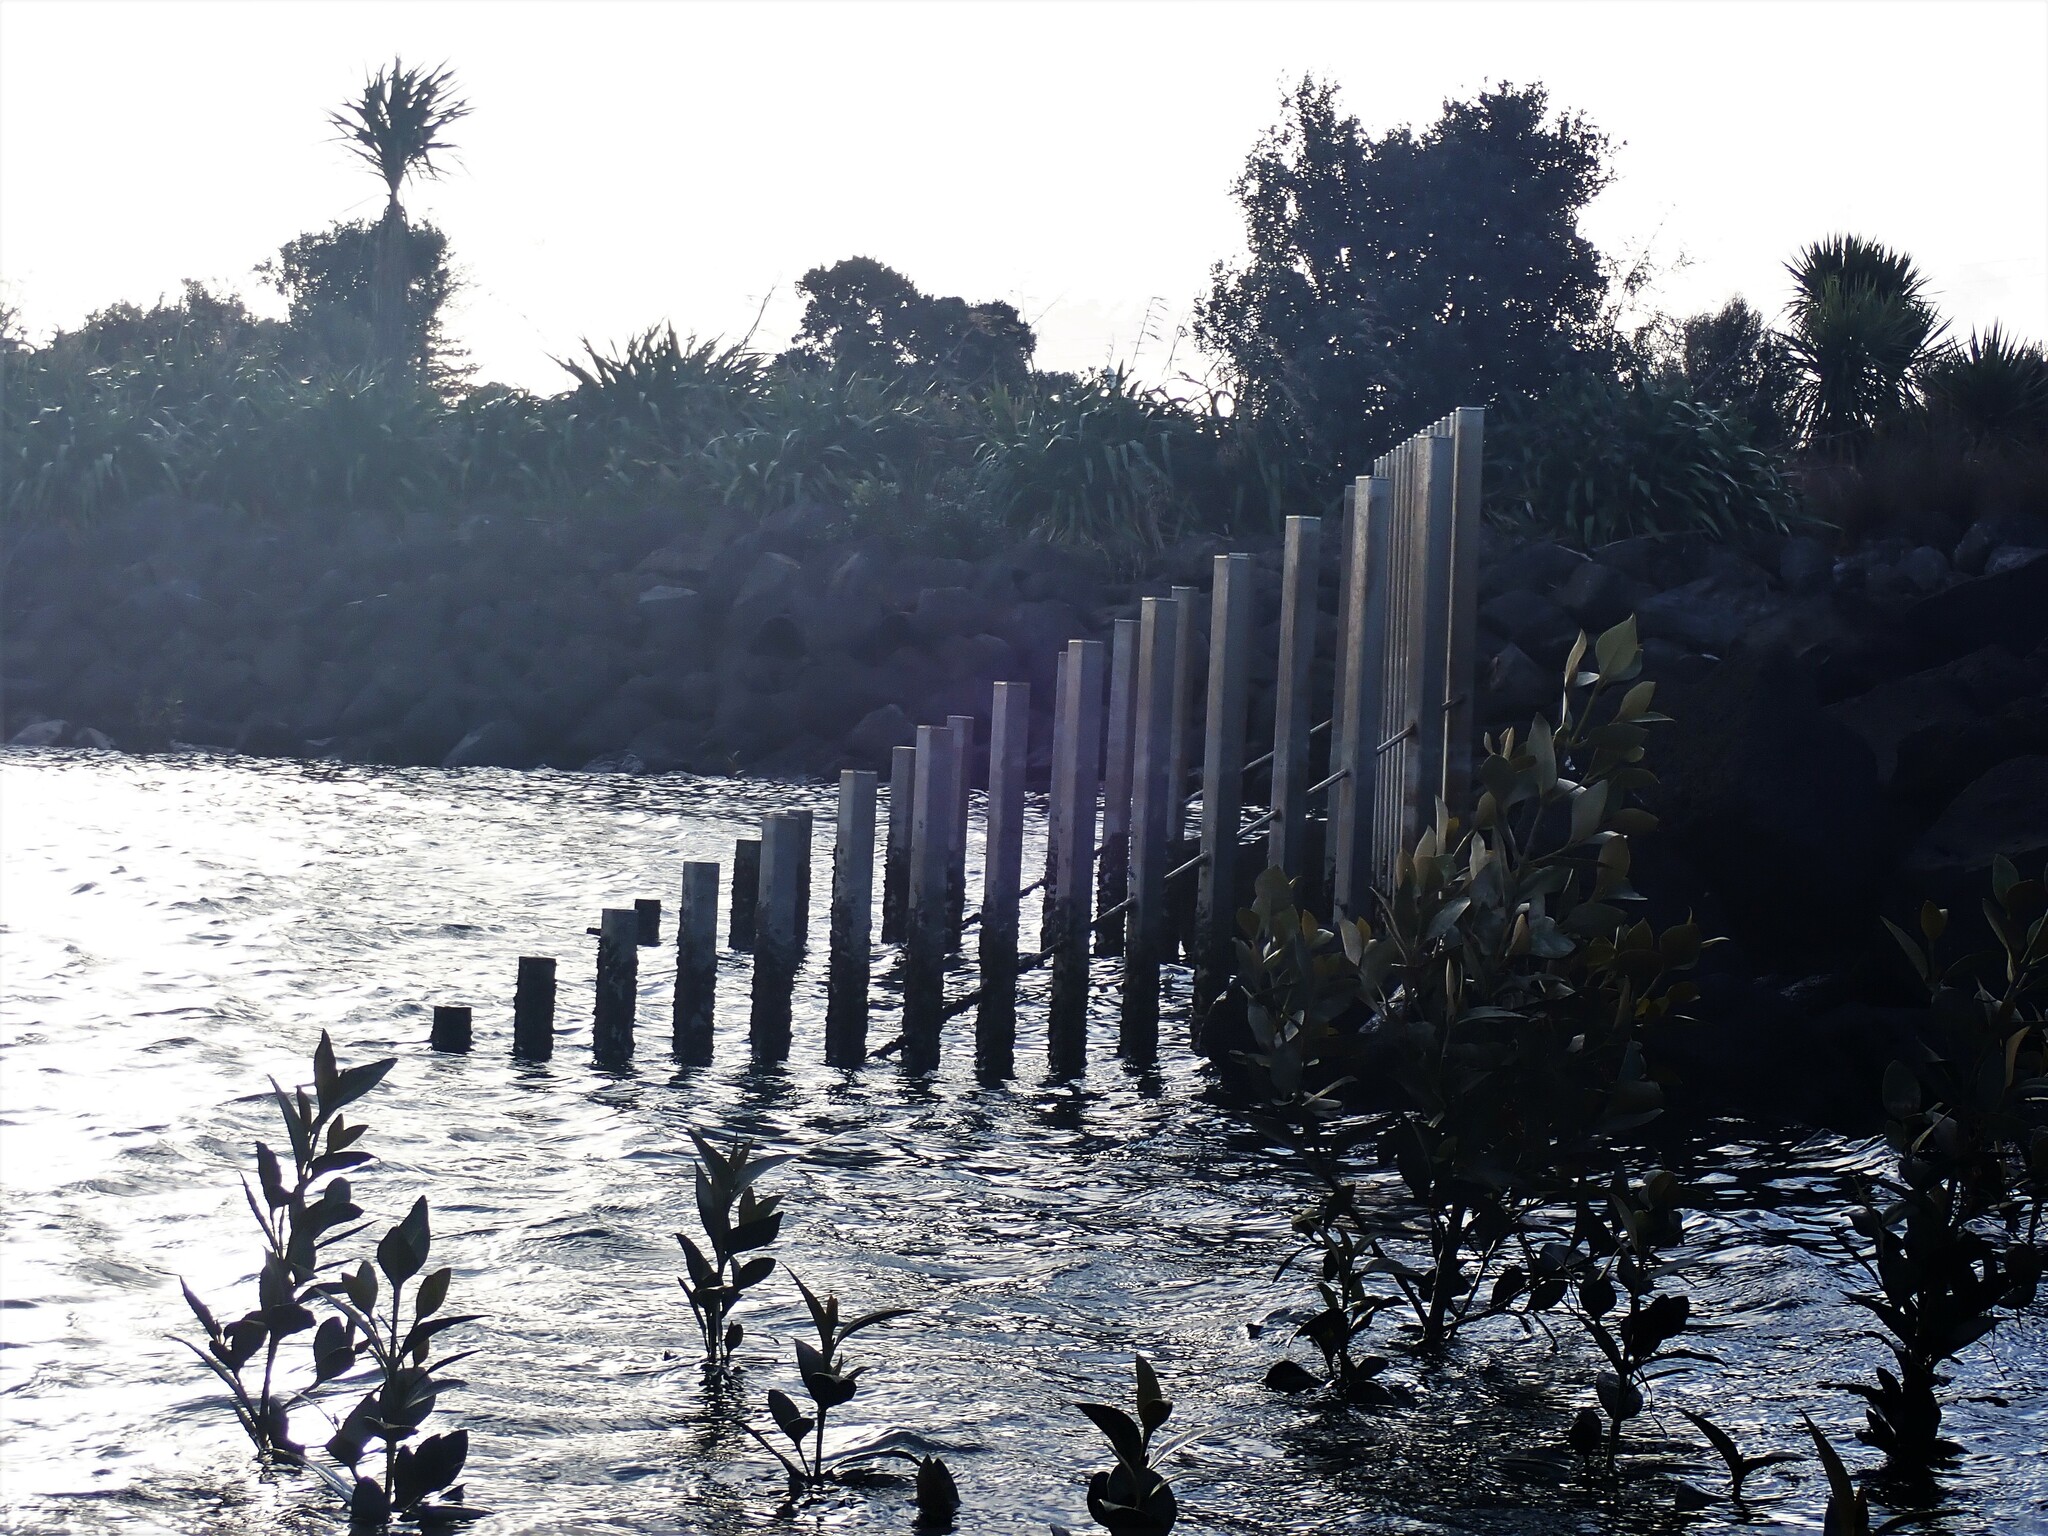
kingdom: Plantae
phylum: Tracheophyta
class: Magnoliopsida
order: Lamiales
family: Acanthaceae
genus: Avicennia
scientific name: Avicennia marina
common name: Gray mangrove
